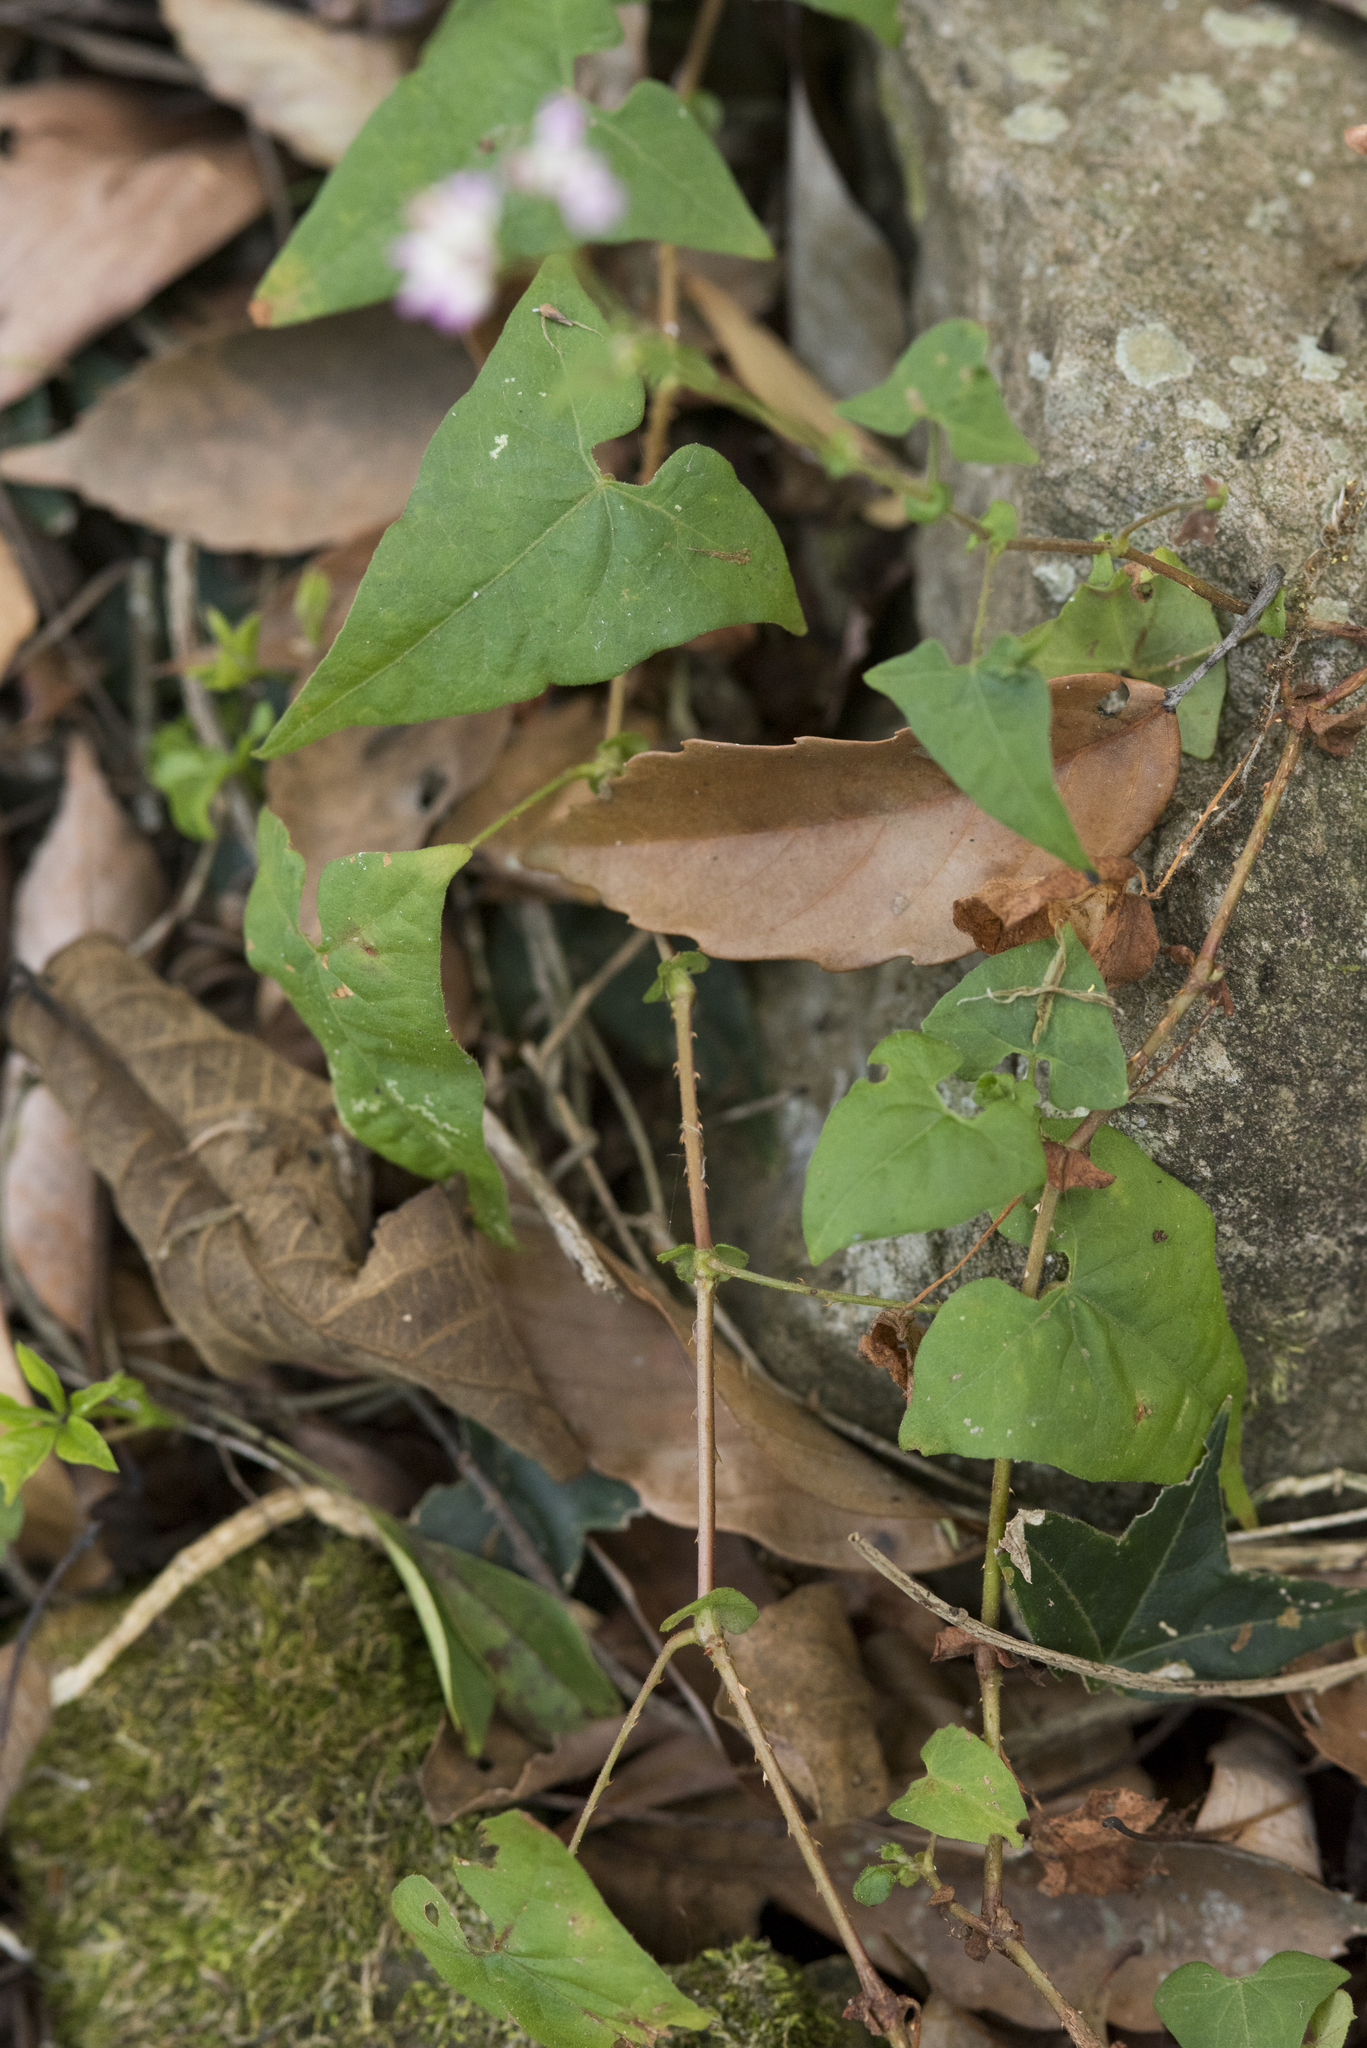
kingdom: Plantae
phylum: Tracheophyta
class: Magnoliopsida
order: Caryophyllales
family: Polygonaceae
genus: Persicaria
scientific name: Persicaria senticosa
